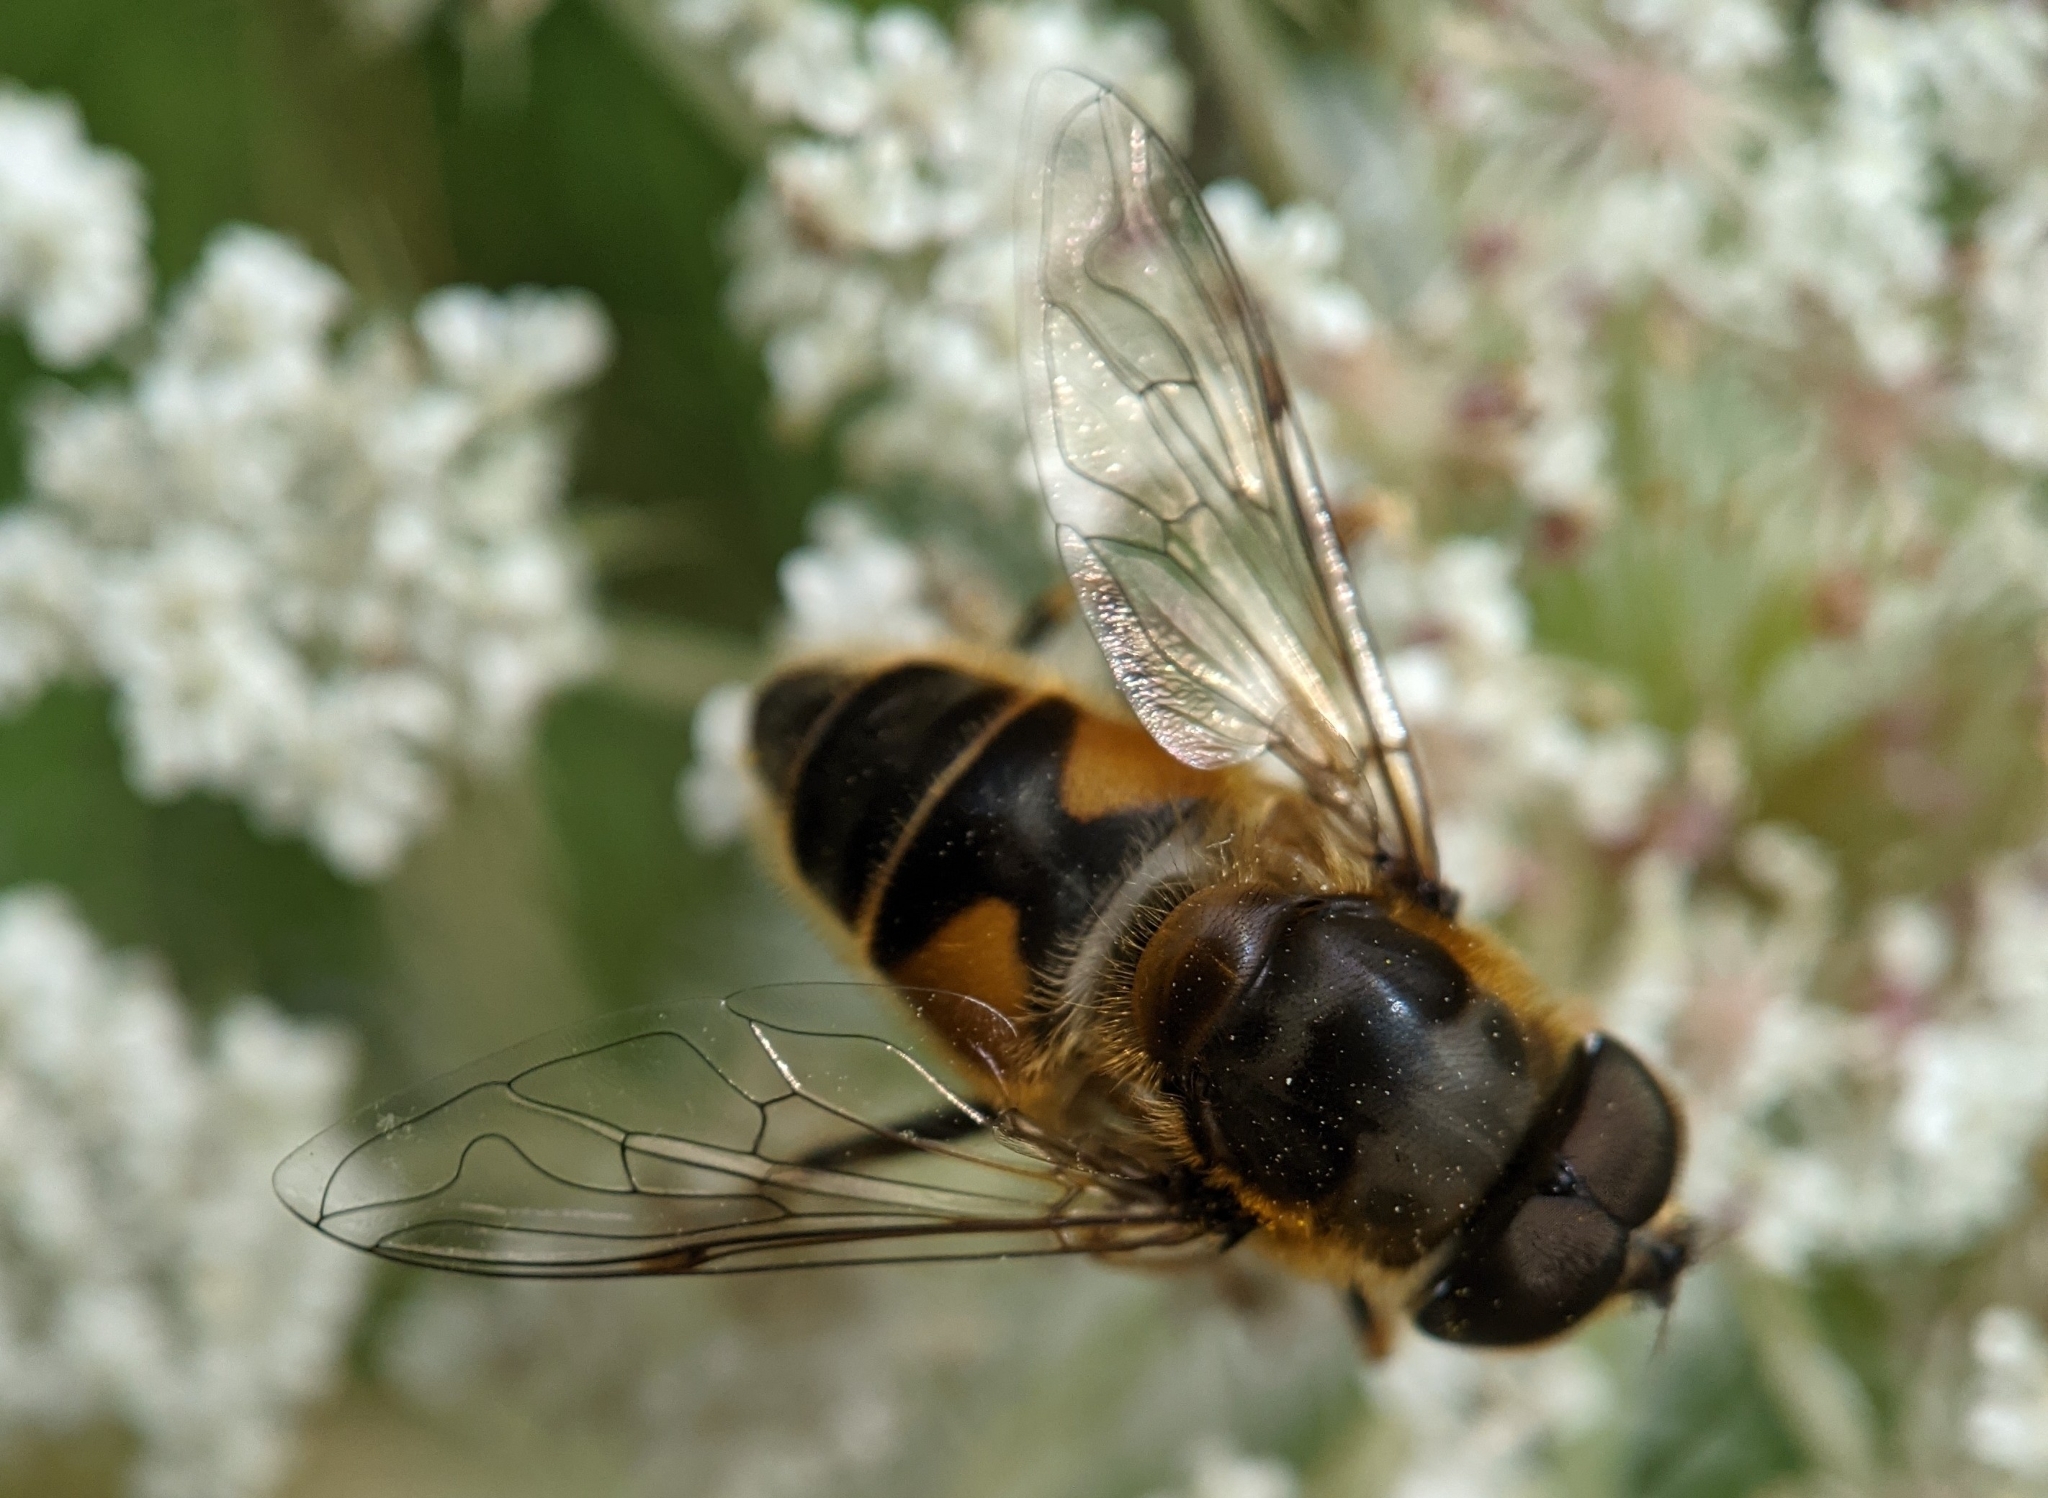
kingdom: Animalia
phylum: Arthropoda
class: Insecta
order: Diptera
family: Syrphidae
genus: Eristalis
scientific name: Eristalis pertinax
